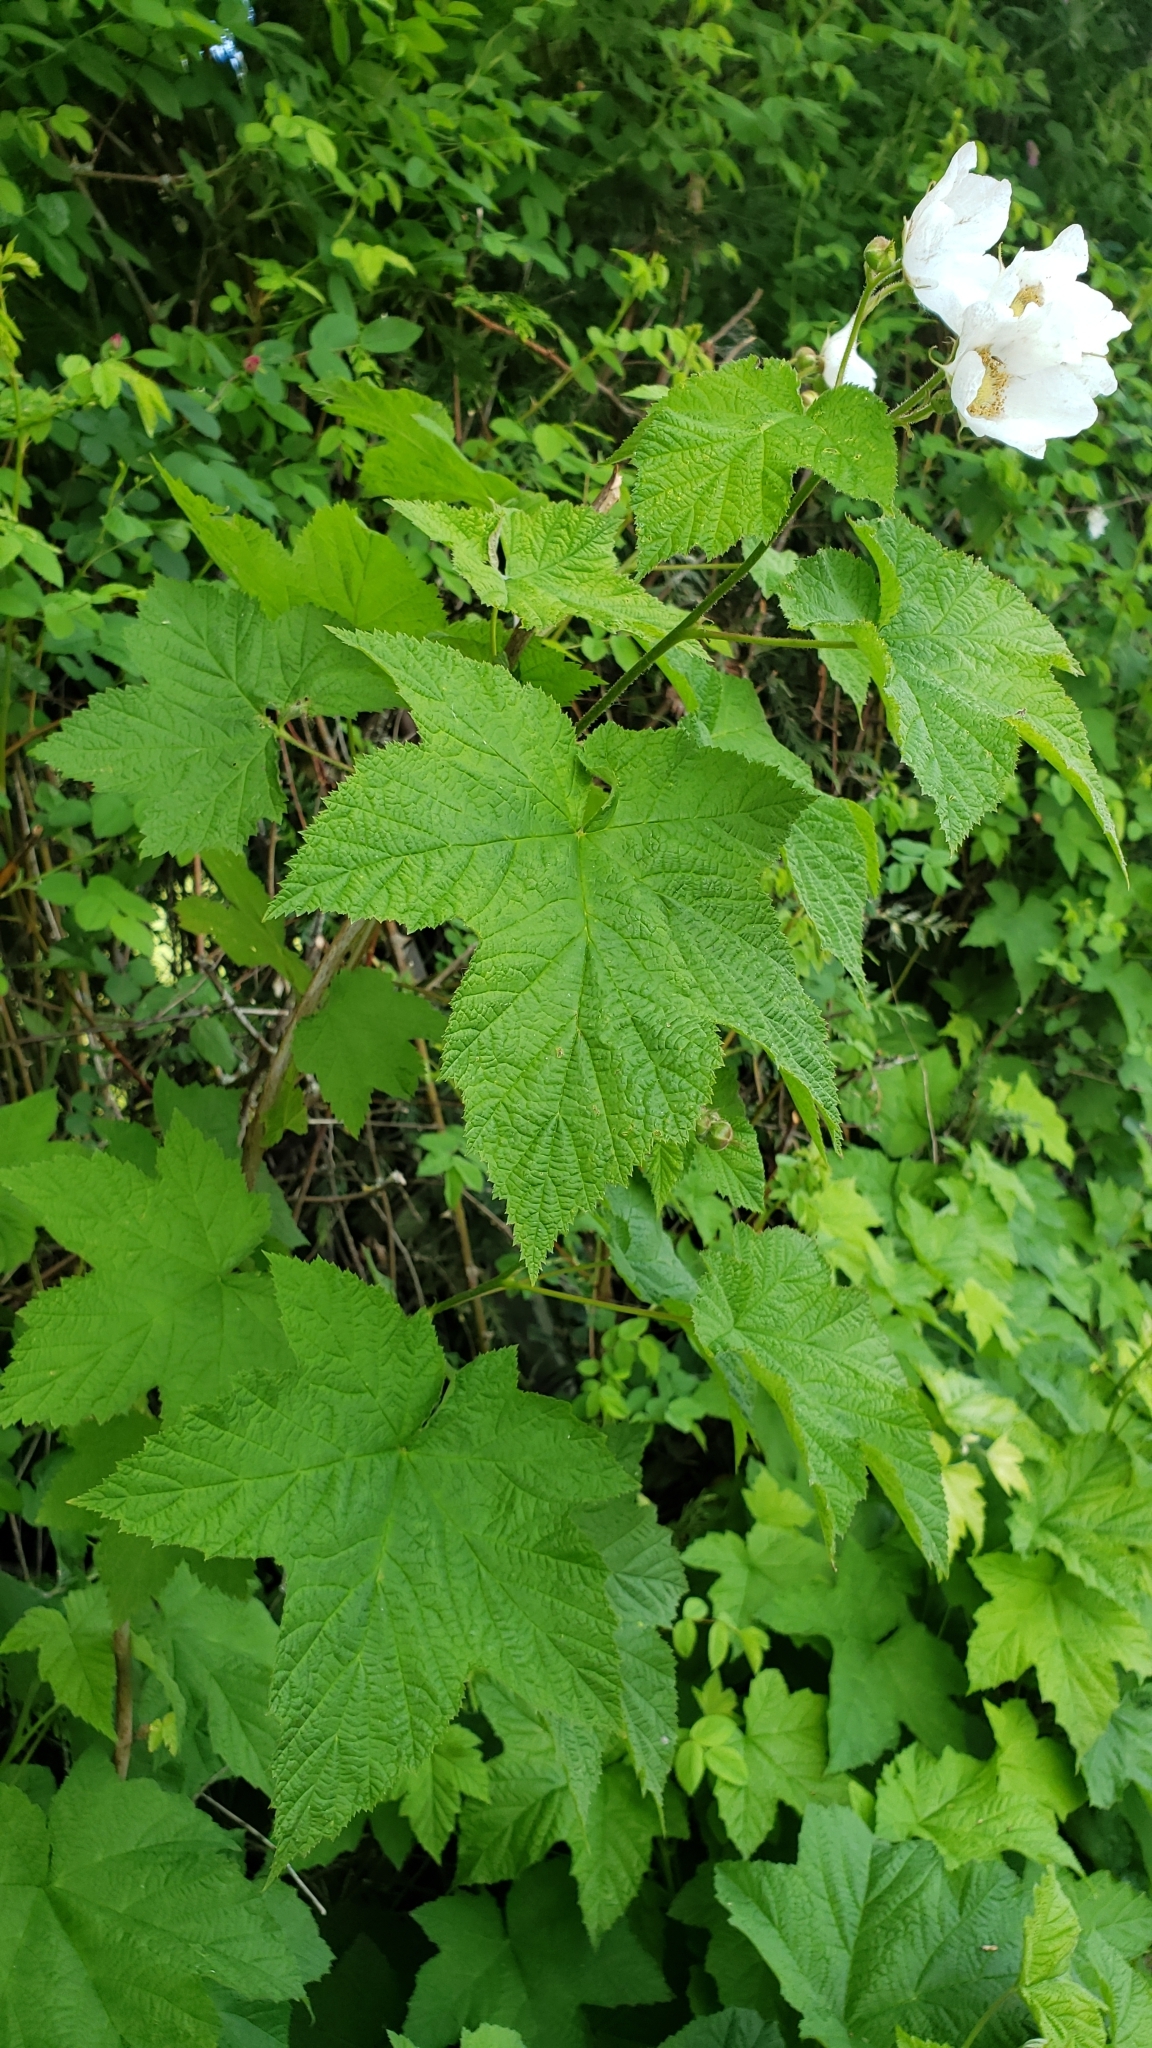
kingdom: Plantae
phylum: Tracheophyta
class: Magnoliopsida
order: Rosales
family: Rosaceae
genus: Rubus
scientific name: Rubus parviflorus
